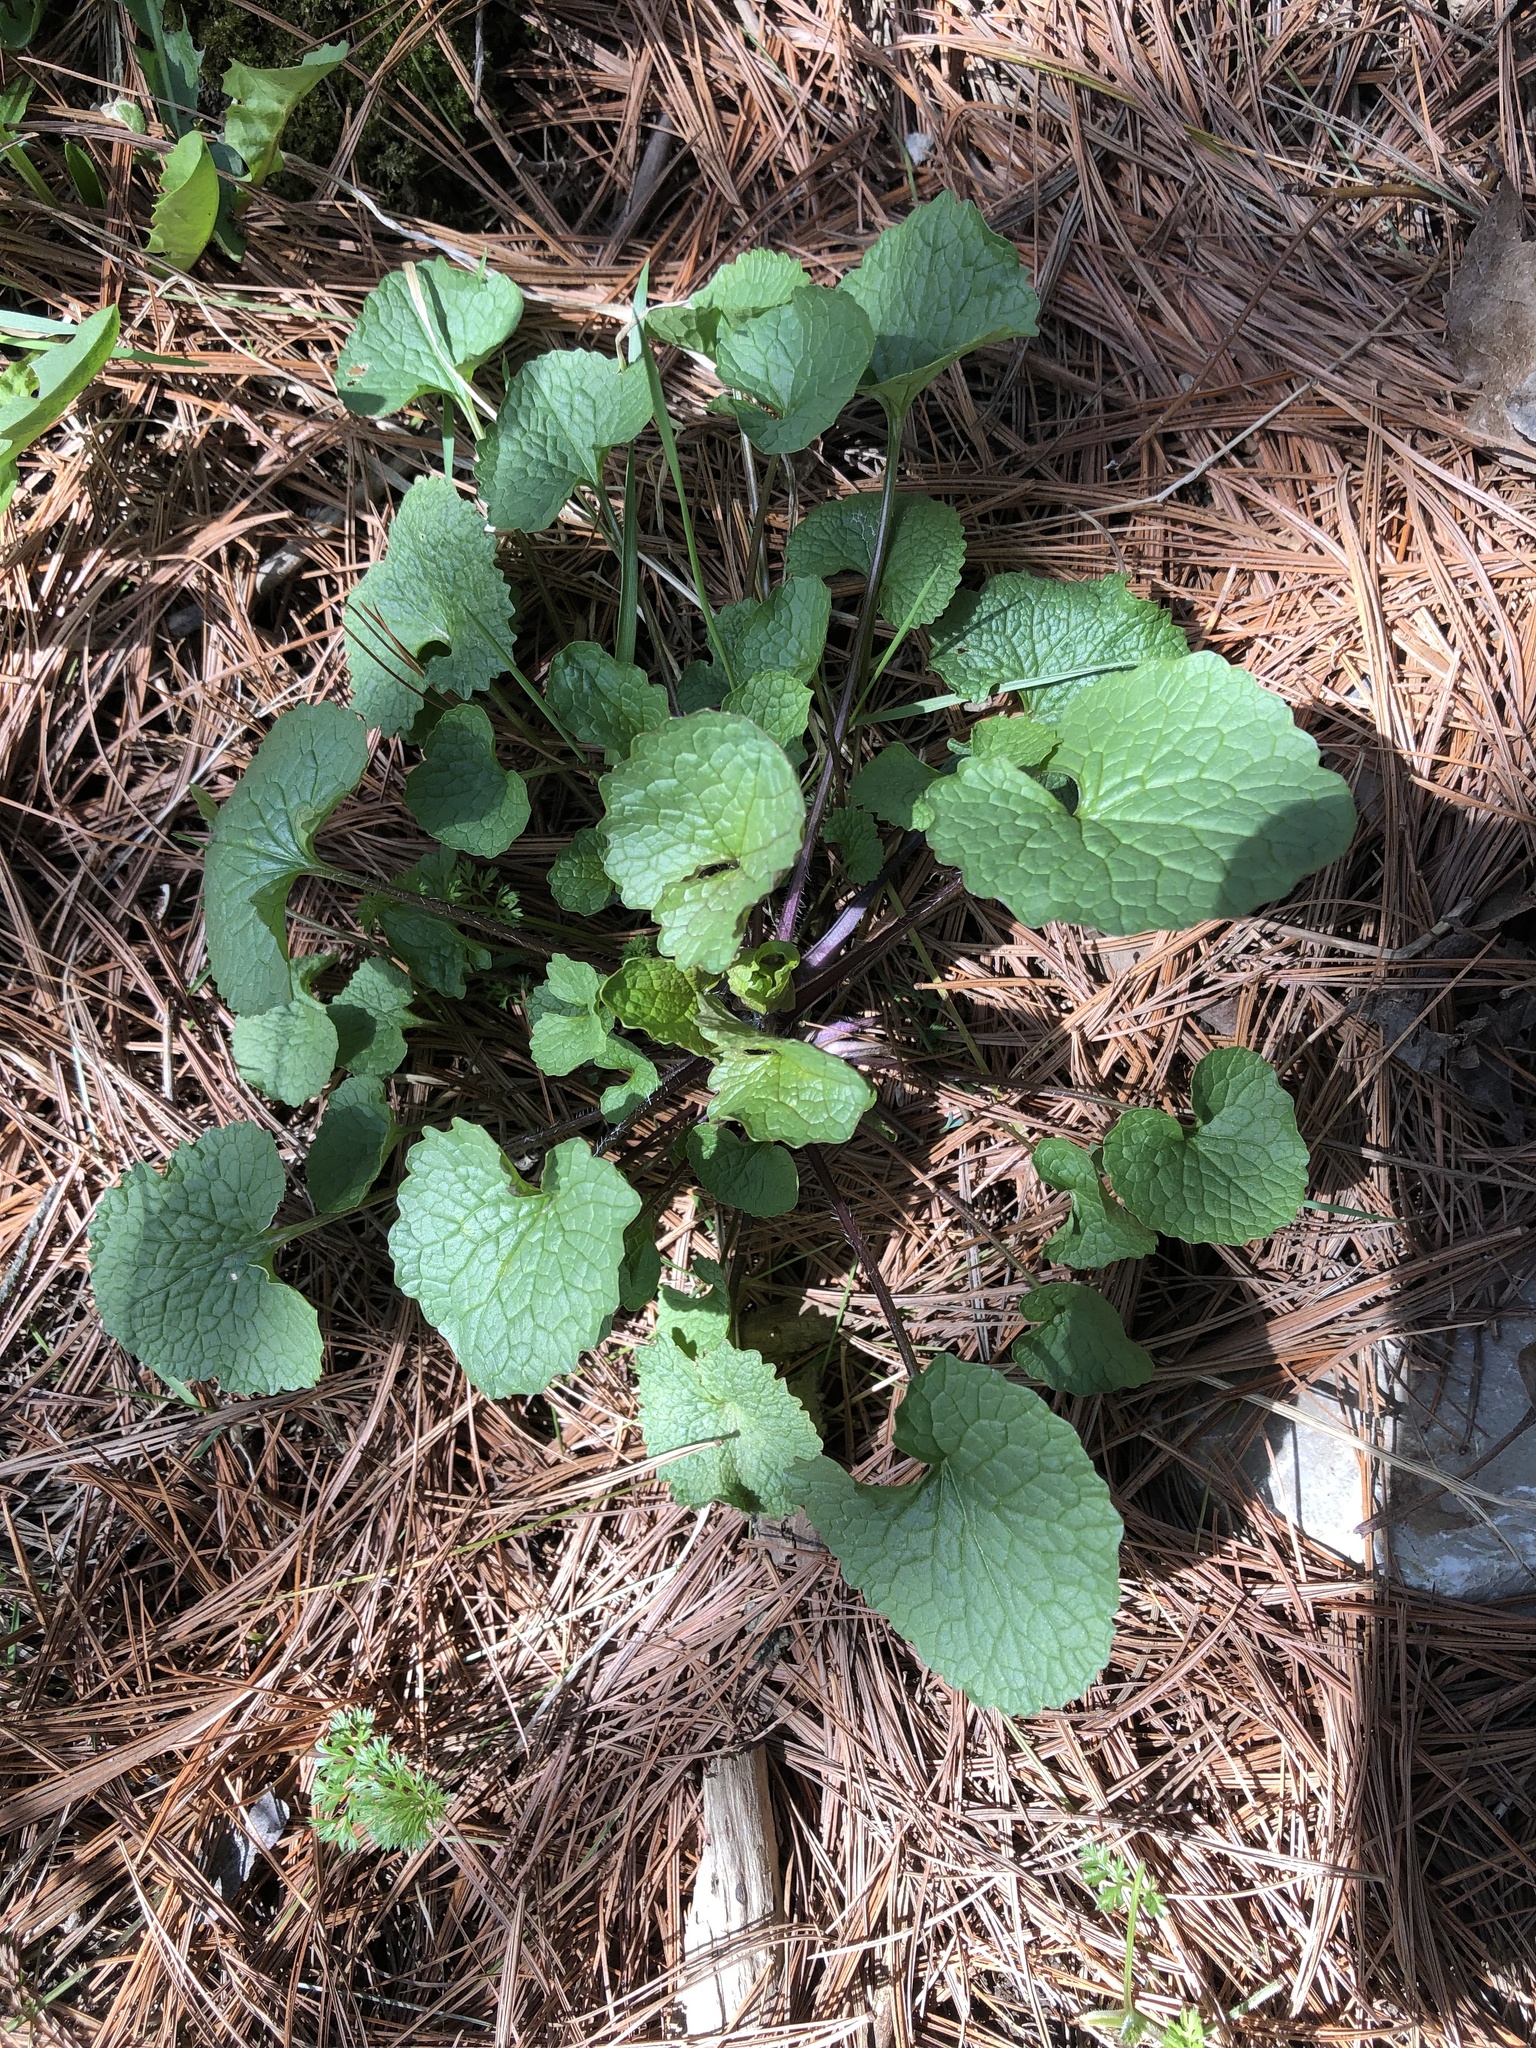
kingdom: Plantae
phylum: Tracheophyta
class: Magnoliopsida
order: Brassicales
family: Brassicaceae
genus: Alliaria
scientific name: Alliaria petiolata
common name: Garlic mustard
